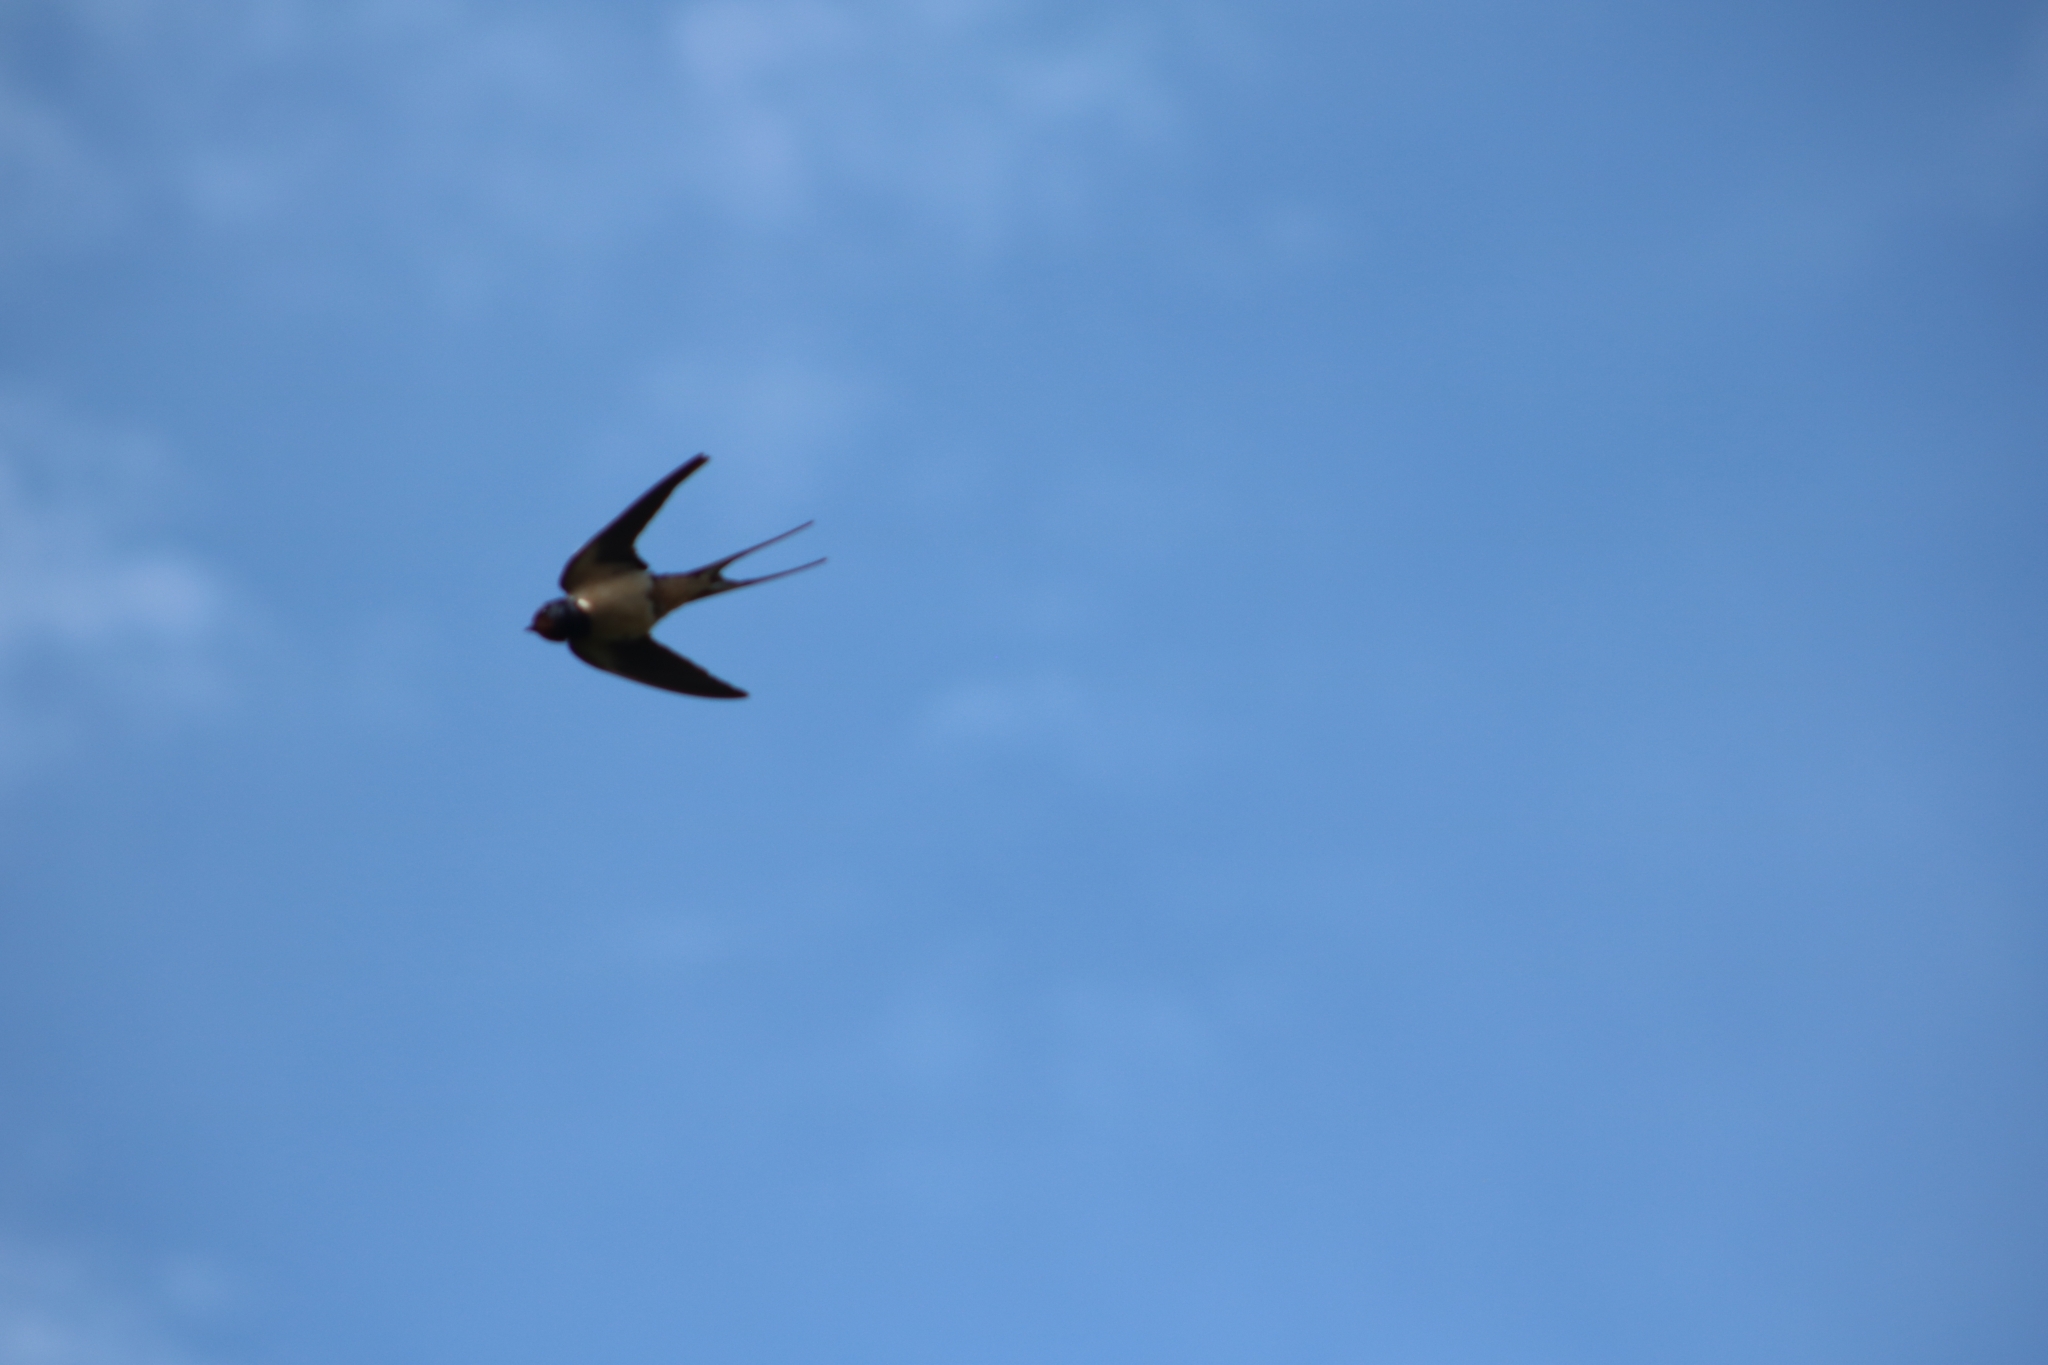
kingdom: Animalia
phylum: Chordata
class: Aves
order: Passeriformes
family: Hirundinidae
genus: Hirundo
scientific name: Hirundo rustica
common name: Barn swallow
